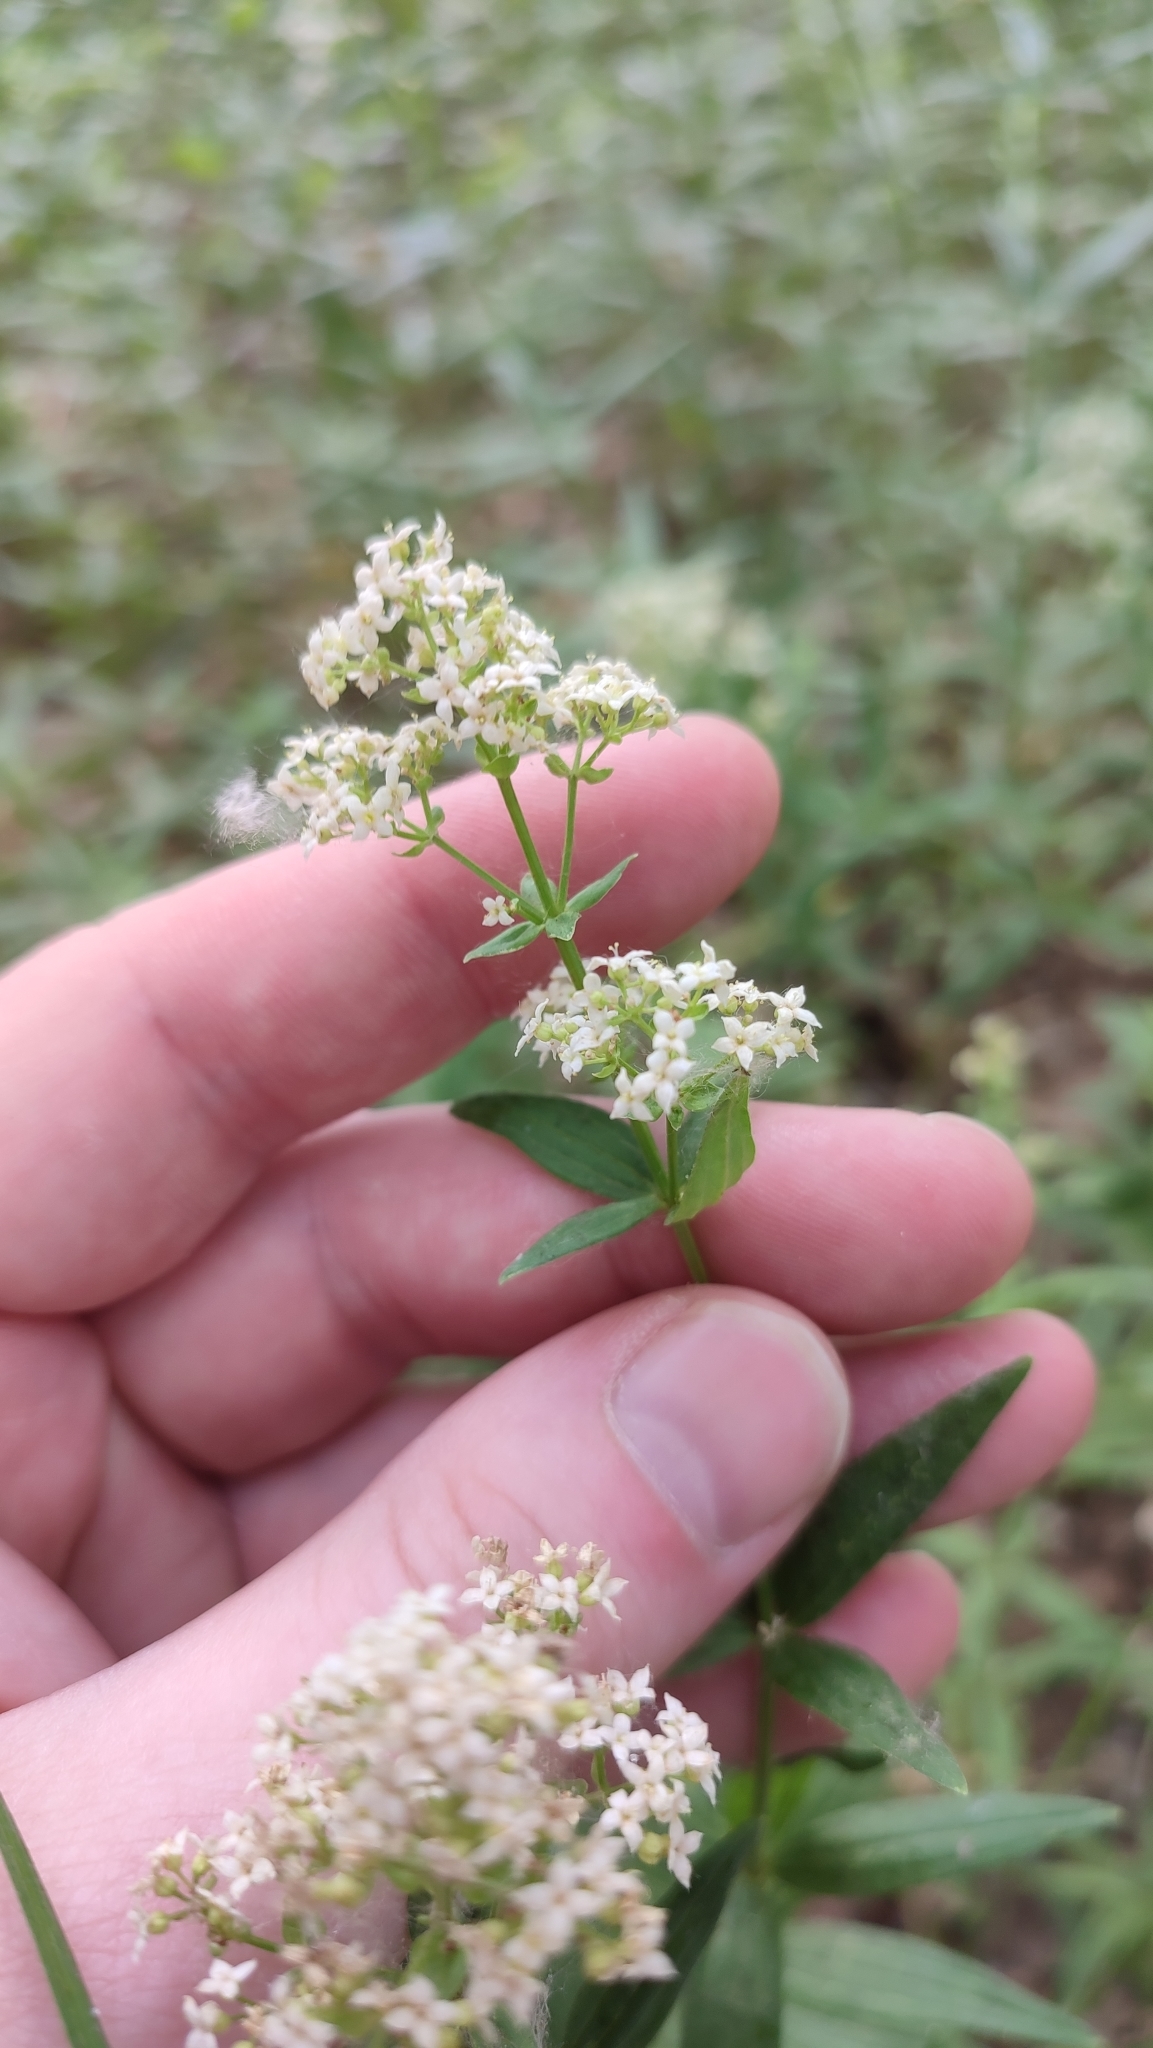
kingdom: Plantae
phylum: Tracheophyta
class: Magnoliopsida
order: Gentianales
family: Rubiaceae
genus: Galium
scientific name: Galium boreale
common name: Northern bedstraw
